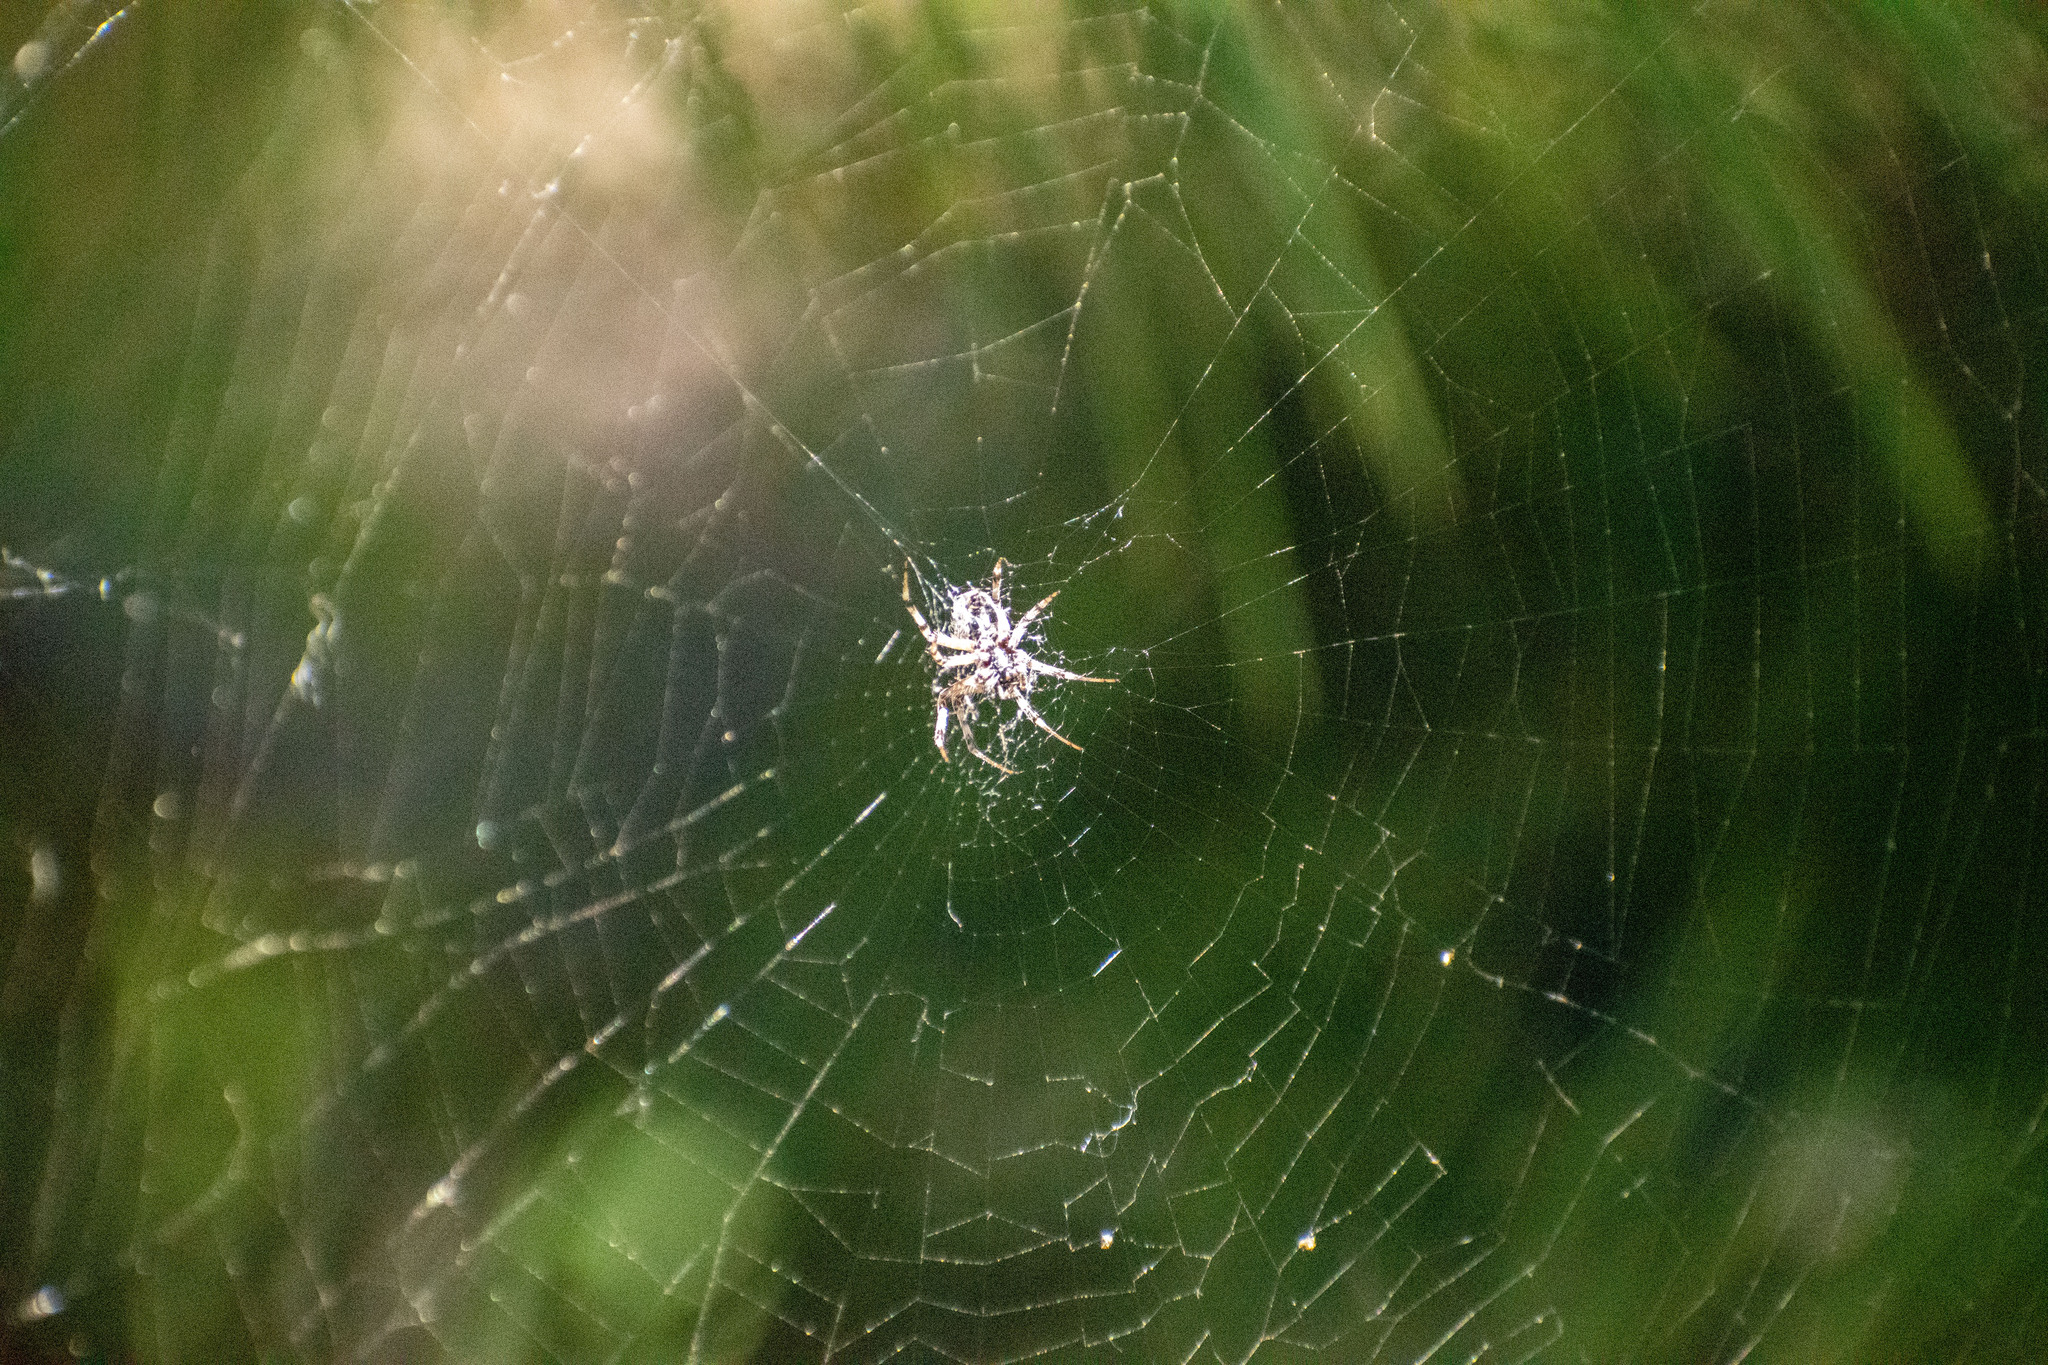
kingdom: Animalia
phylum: Arthropoda
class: Arachnida
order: Araneae
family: Araneidae
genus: Metepeira
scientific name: Metepeira
